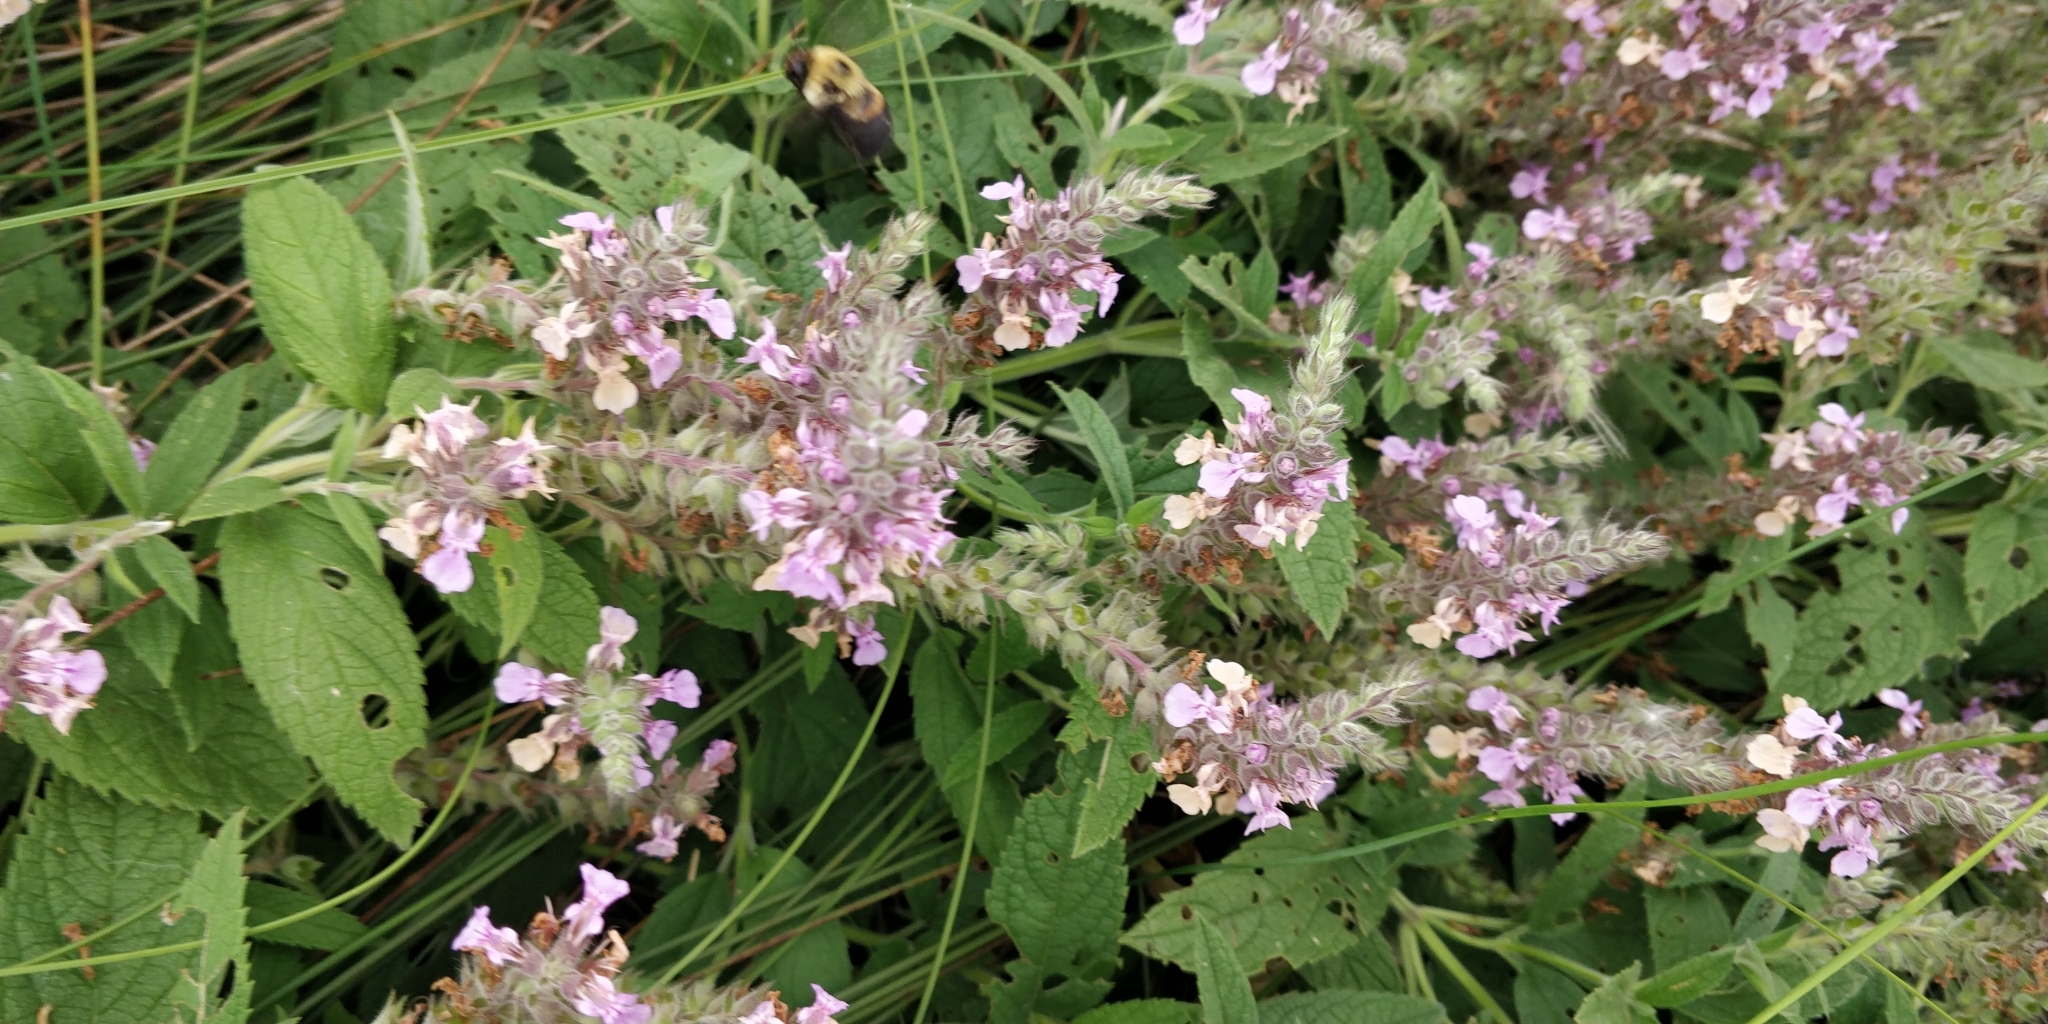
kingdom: Plantae
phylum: Tracheophyta
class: Magnoliopsida
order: Lamiales
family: Lamiaceae
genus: Teucrium
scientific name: Teucrium canadense
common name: American germander
